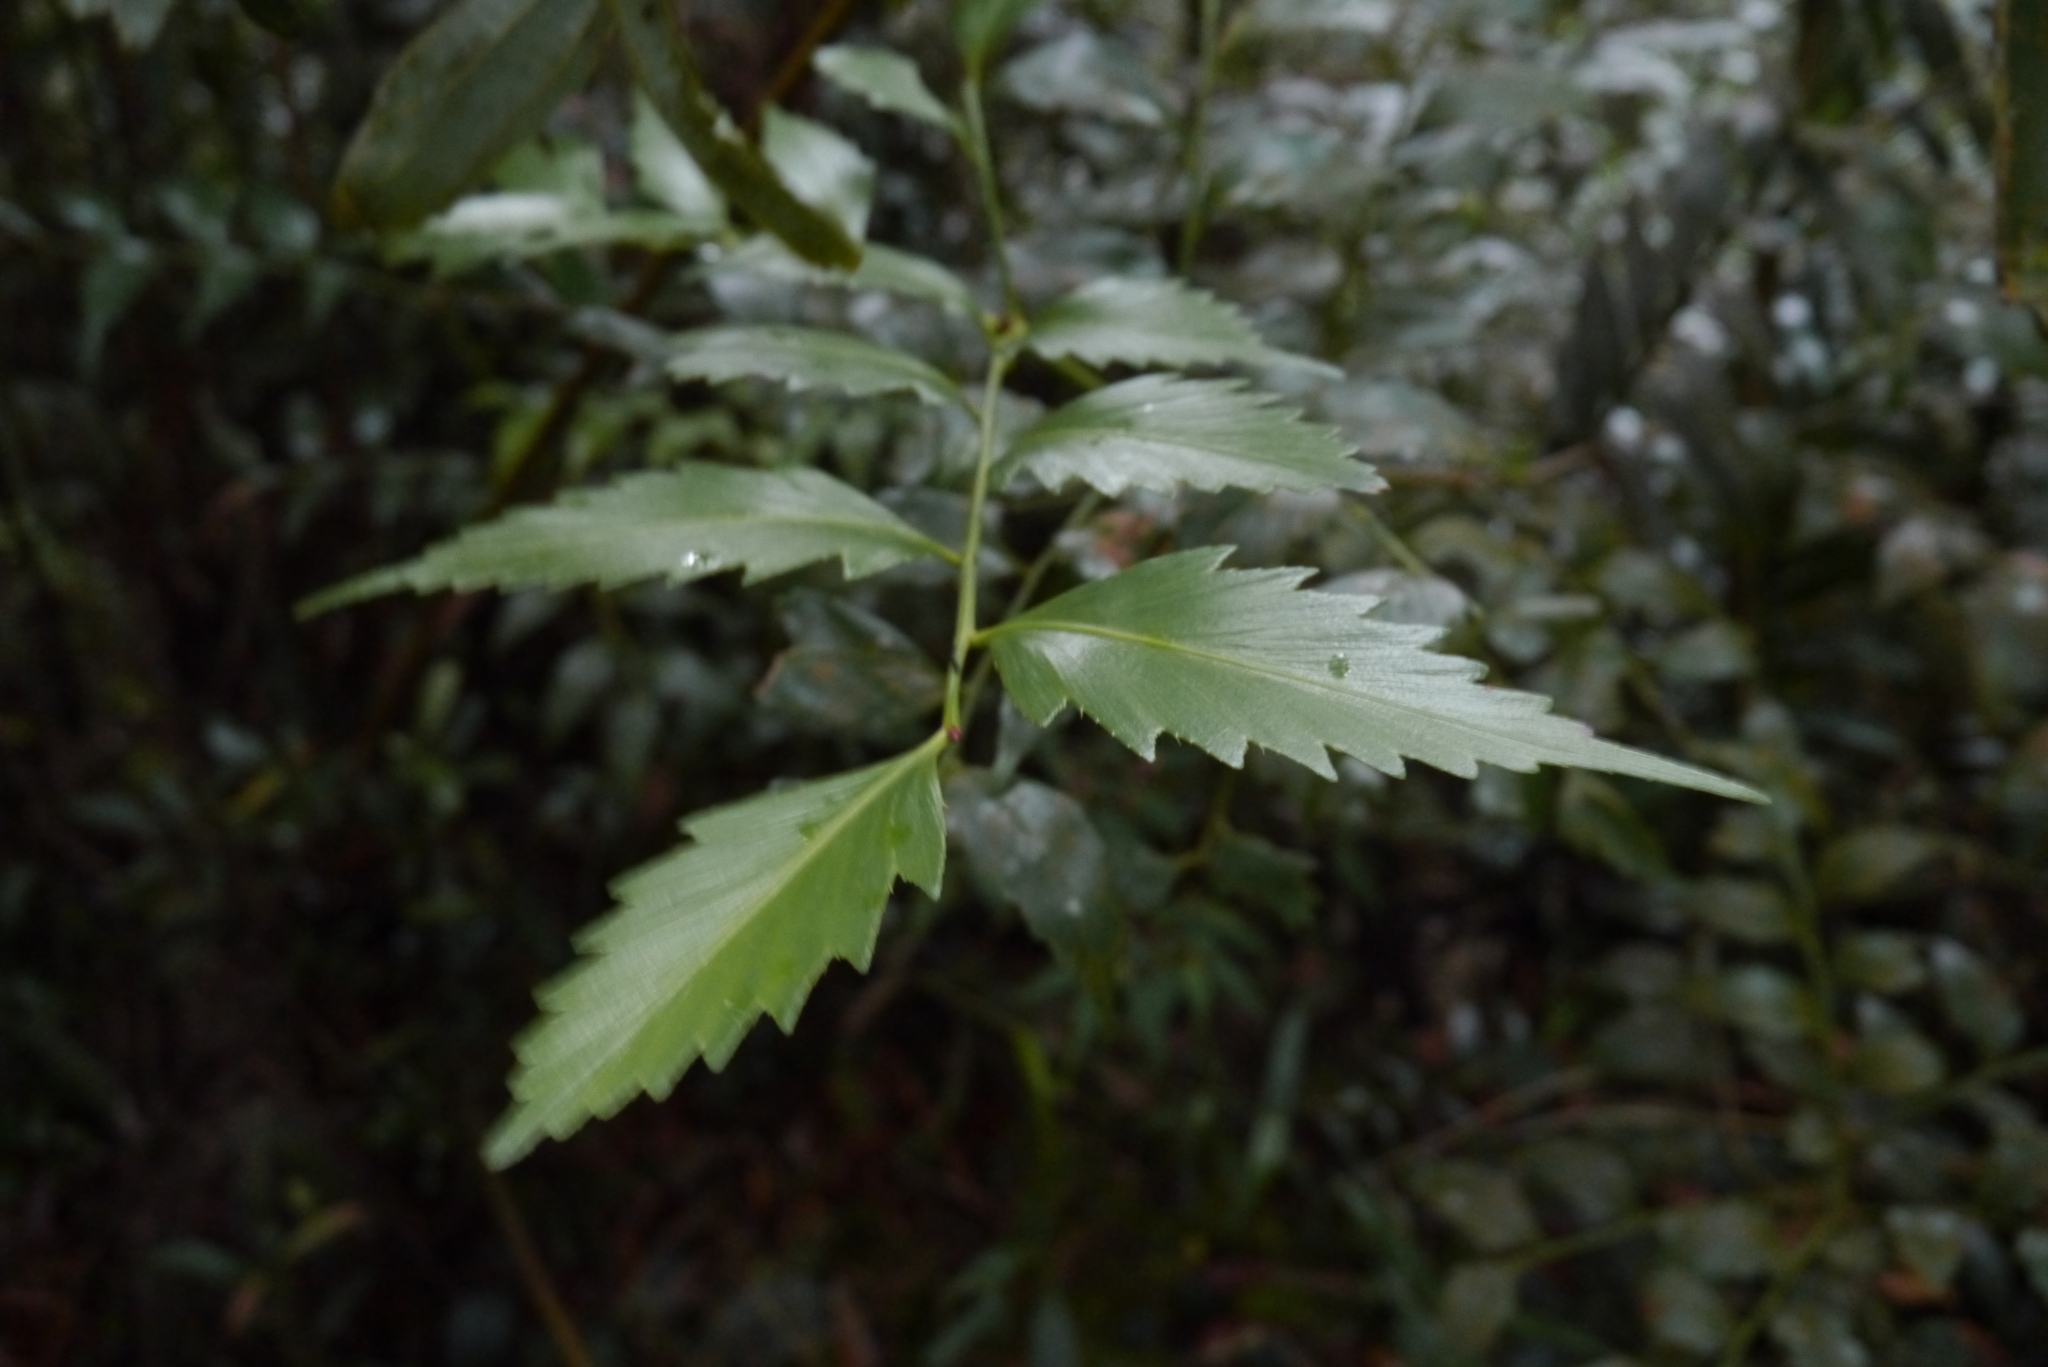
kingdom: Plantae
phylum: Tracheophyta
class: Pinopsida
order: Pinales
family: Phyllocladaceae
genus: Phyllocladus
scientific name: Phyllocladus hypophyllus
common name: Celery pine
